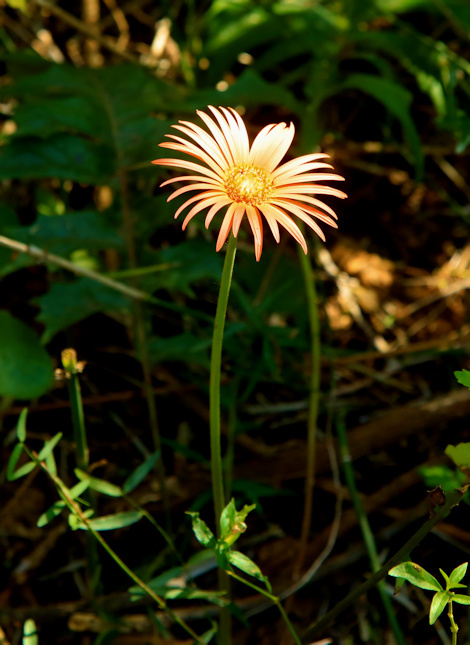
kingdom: Plantae
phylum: Tracheophyta
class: Magnoliopsida
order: Asterales
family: Asteraceae
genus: Gerbera
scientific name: Gerbera jamesonii
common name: African daisy
